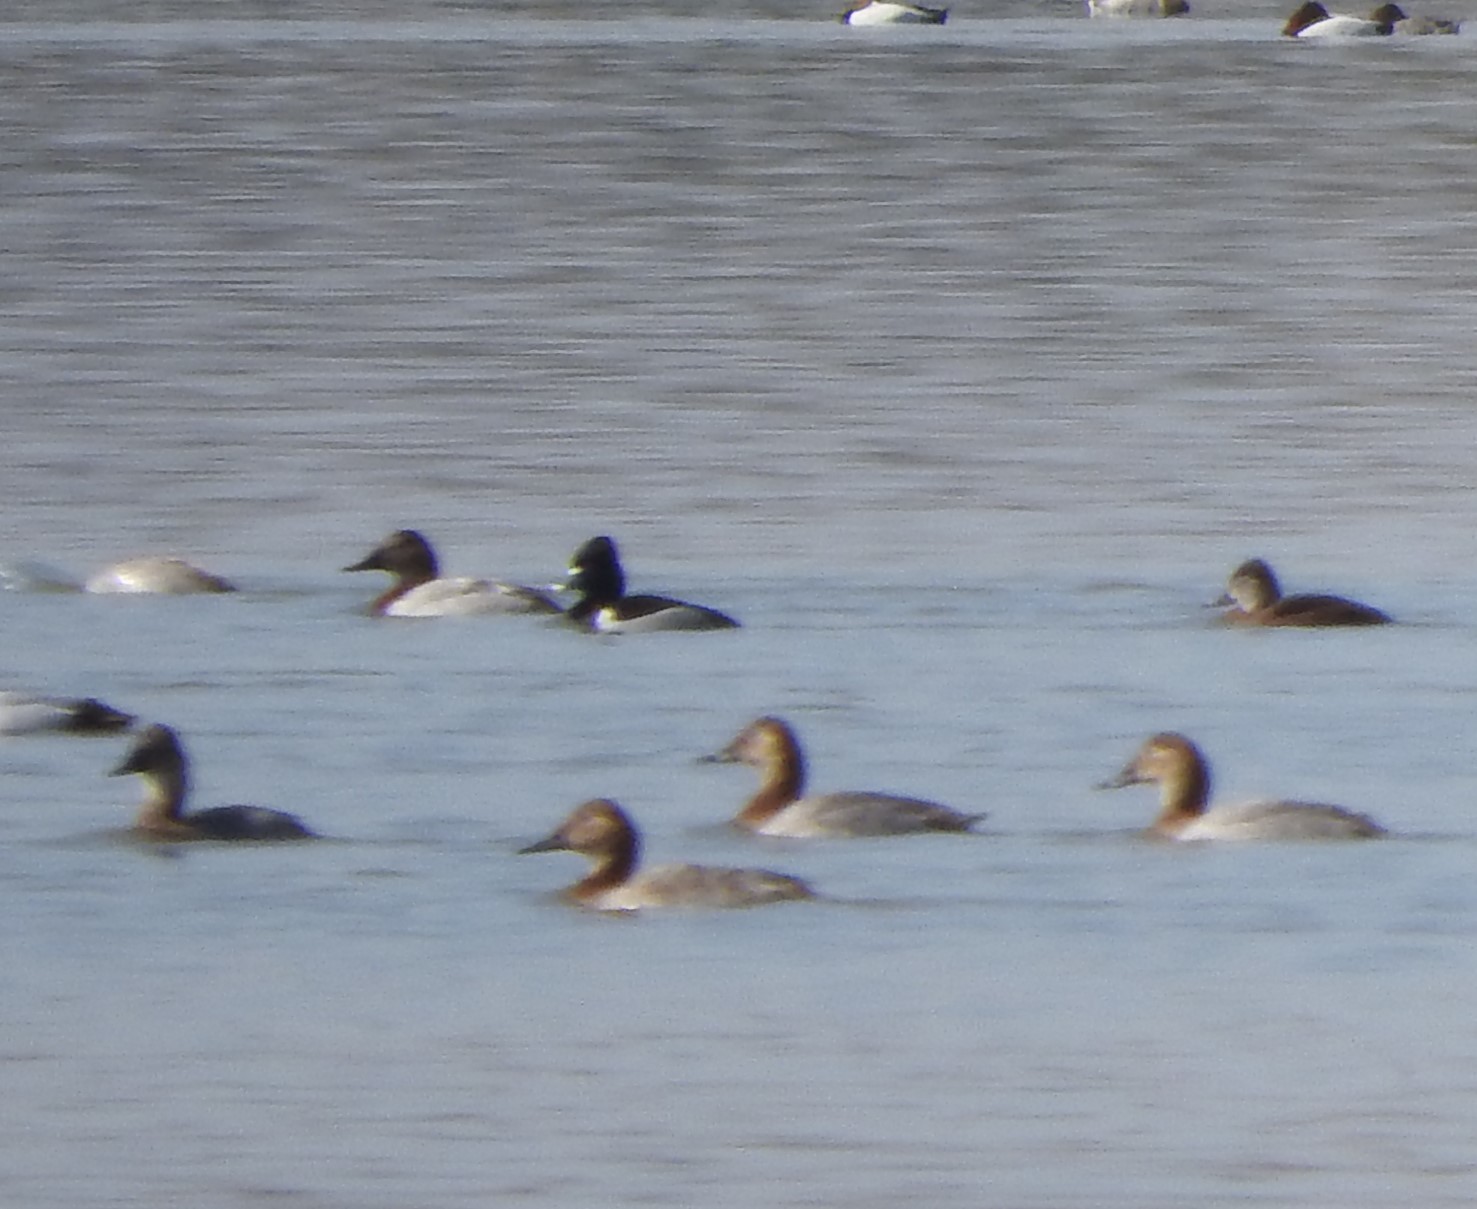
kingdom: Animalia
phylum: Chordata
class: Aves
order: Anseriformes
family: Anatidae
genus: Aythya
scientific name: Aythya collaris
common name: Ring-necked duck
